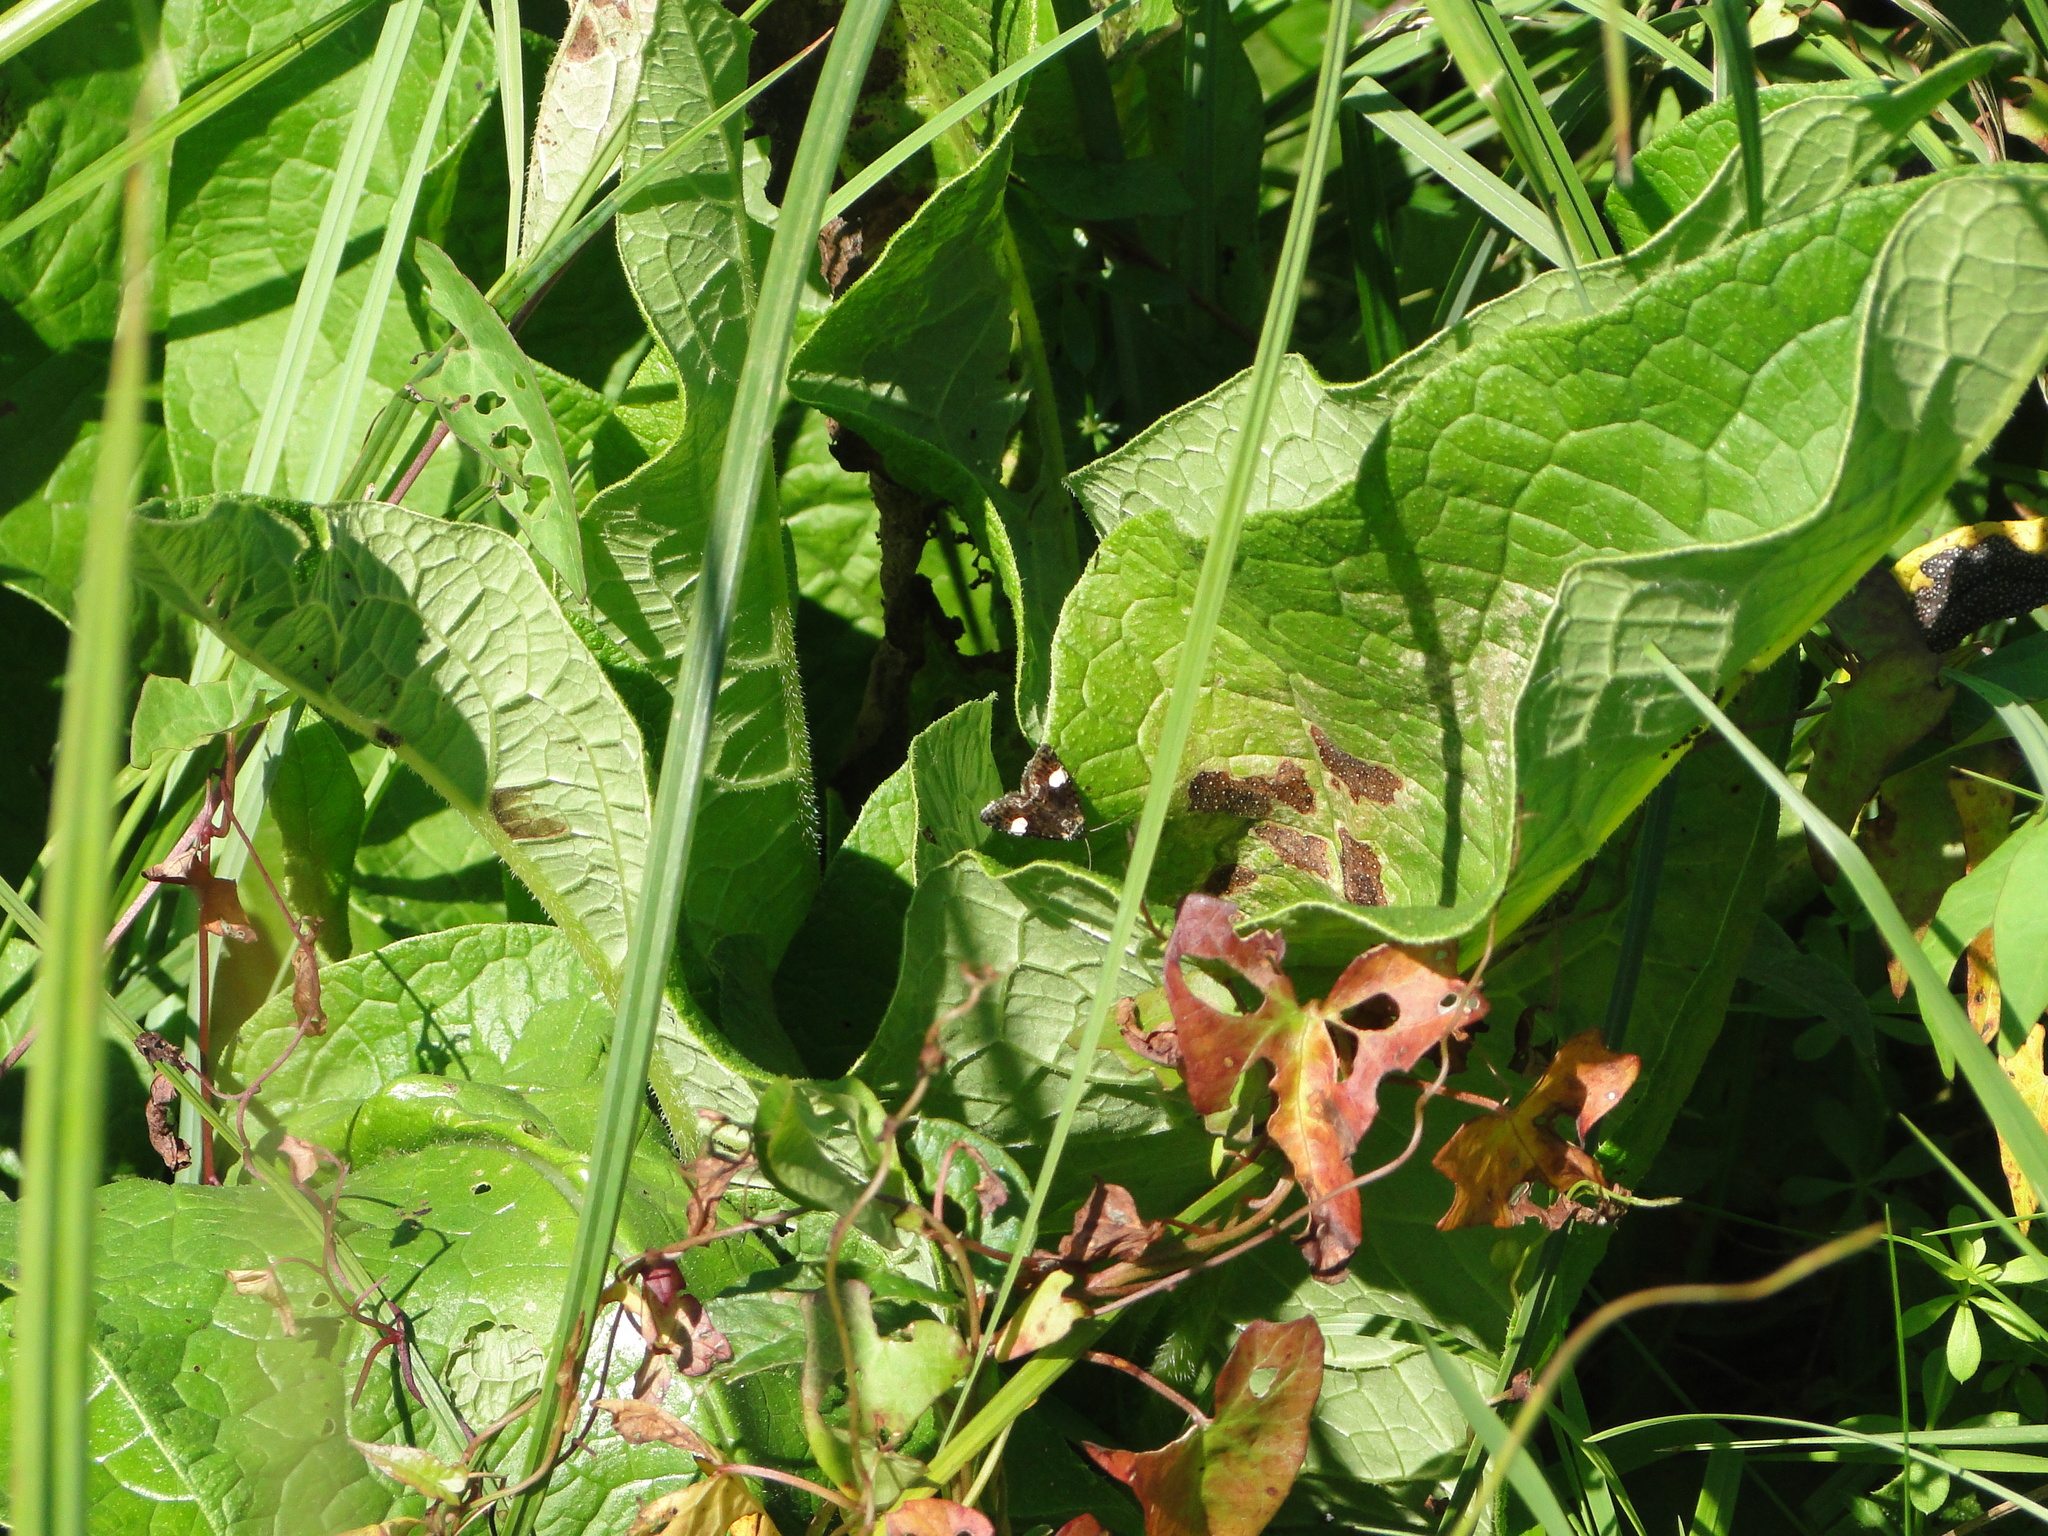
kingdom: Animalia
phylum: Arthropoda
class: Insecta
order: Lepidoptera
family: Erebidae
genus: Tyta
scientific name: Tyta luctuosa
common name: Four-spotted
